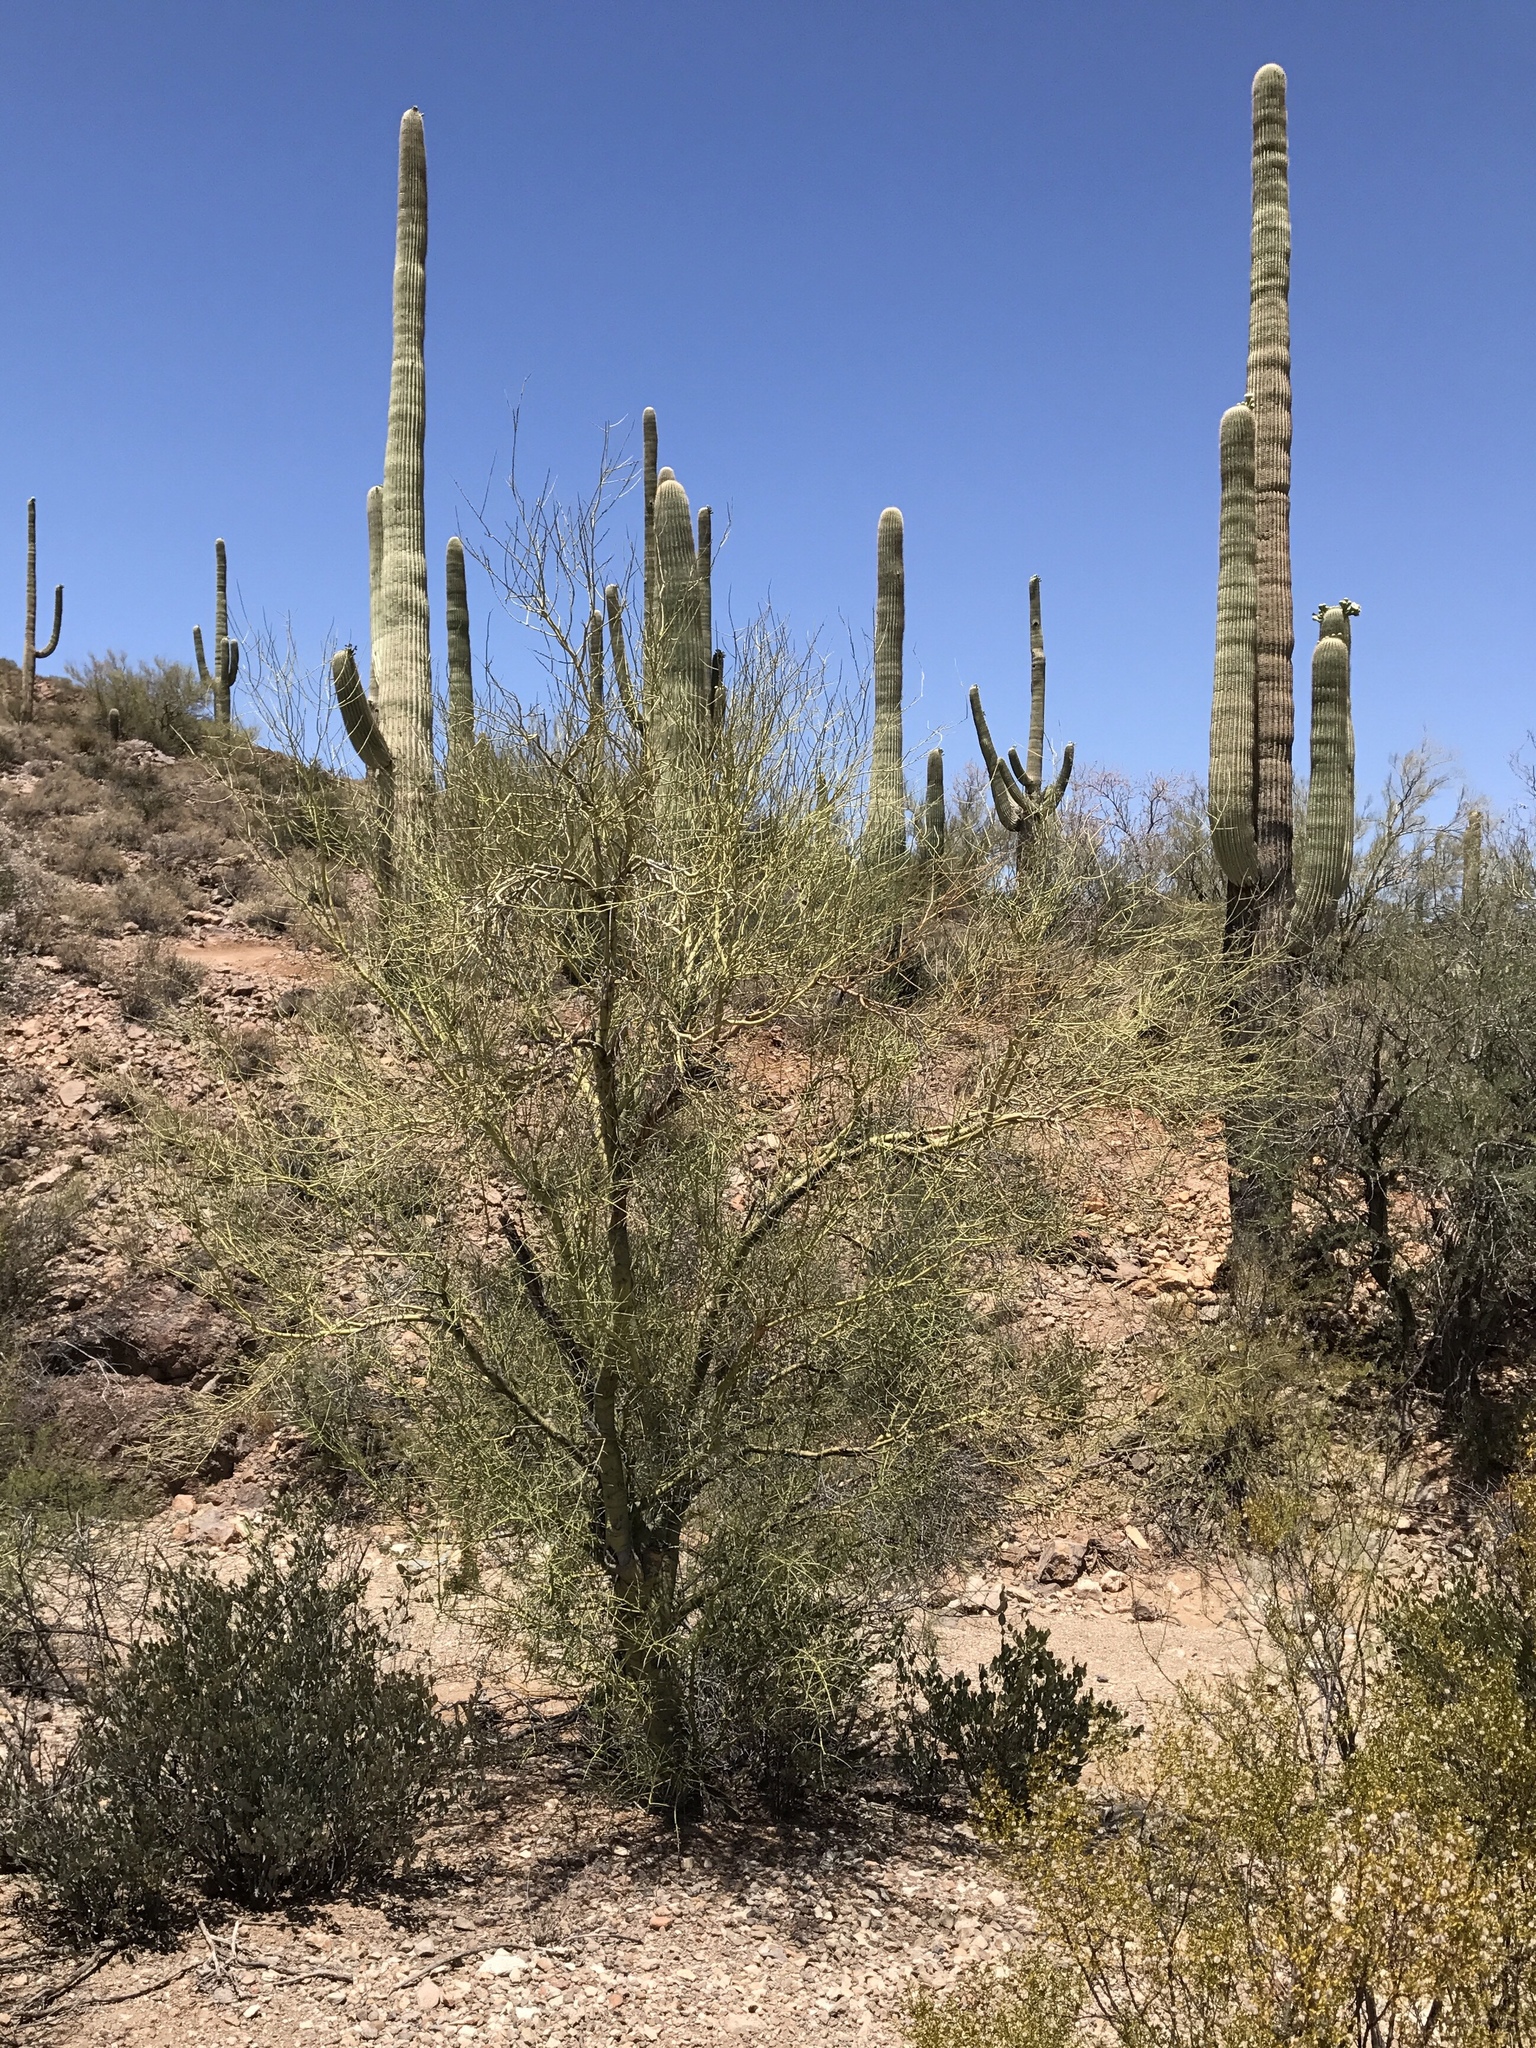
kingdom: Plantae
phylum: Tracheophyta
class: Magnoliopsida
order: Fabales
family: Fabaceae
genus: Parkinsonia
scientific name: Parkinsonia microphylla
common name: Yellow paloverde
